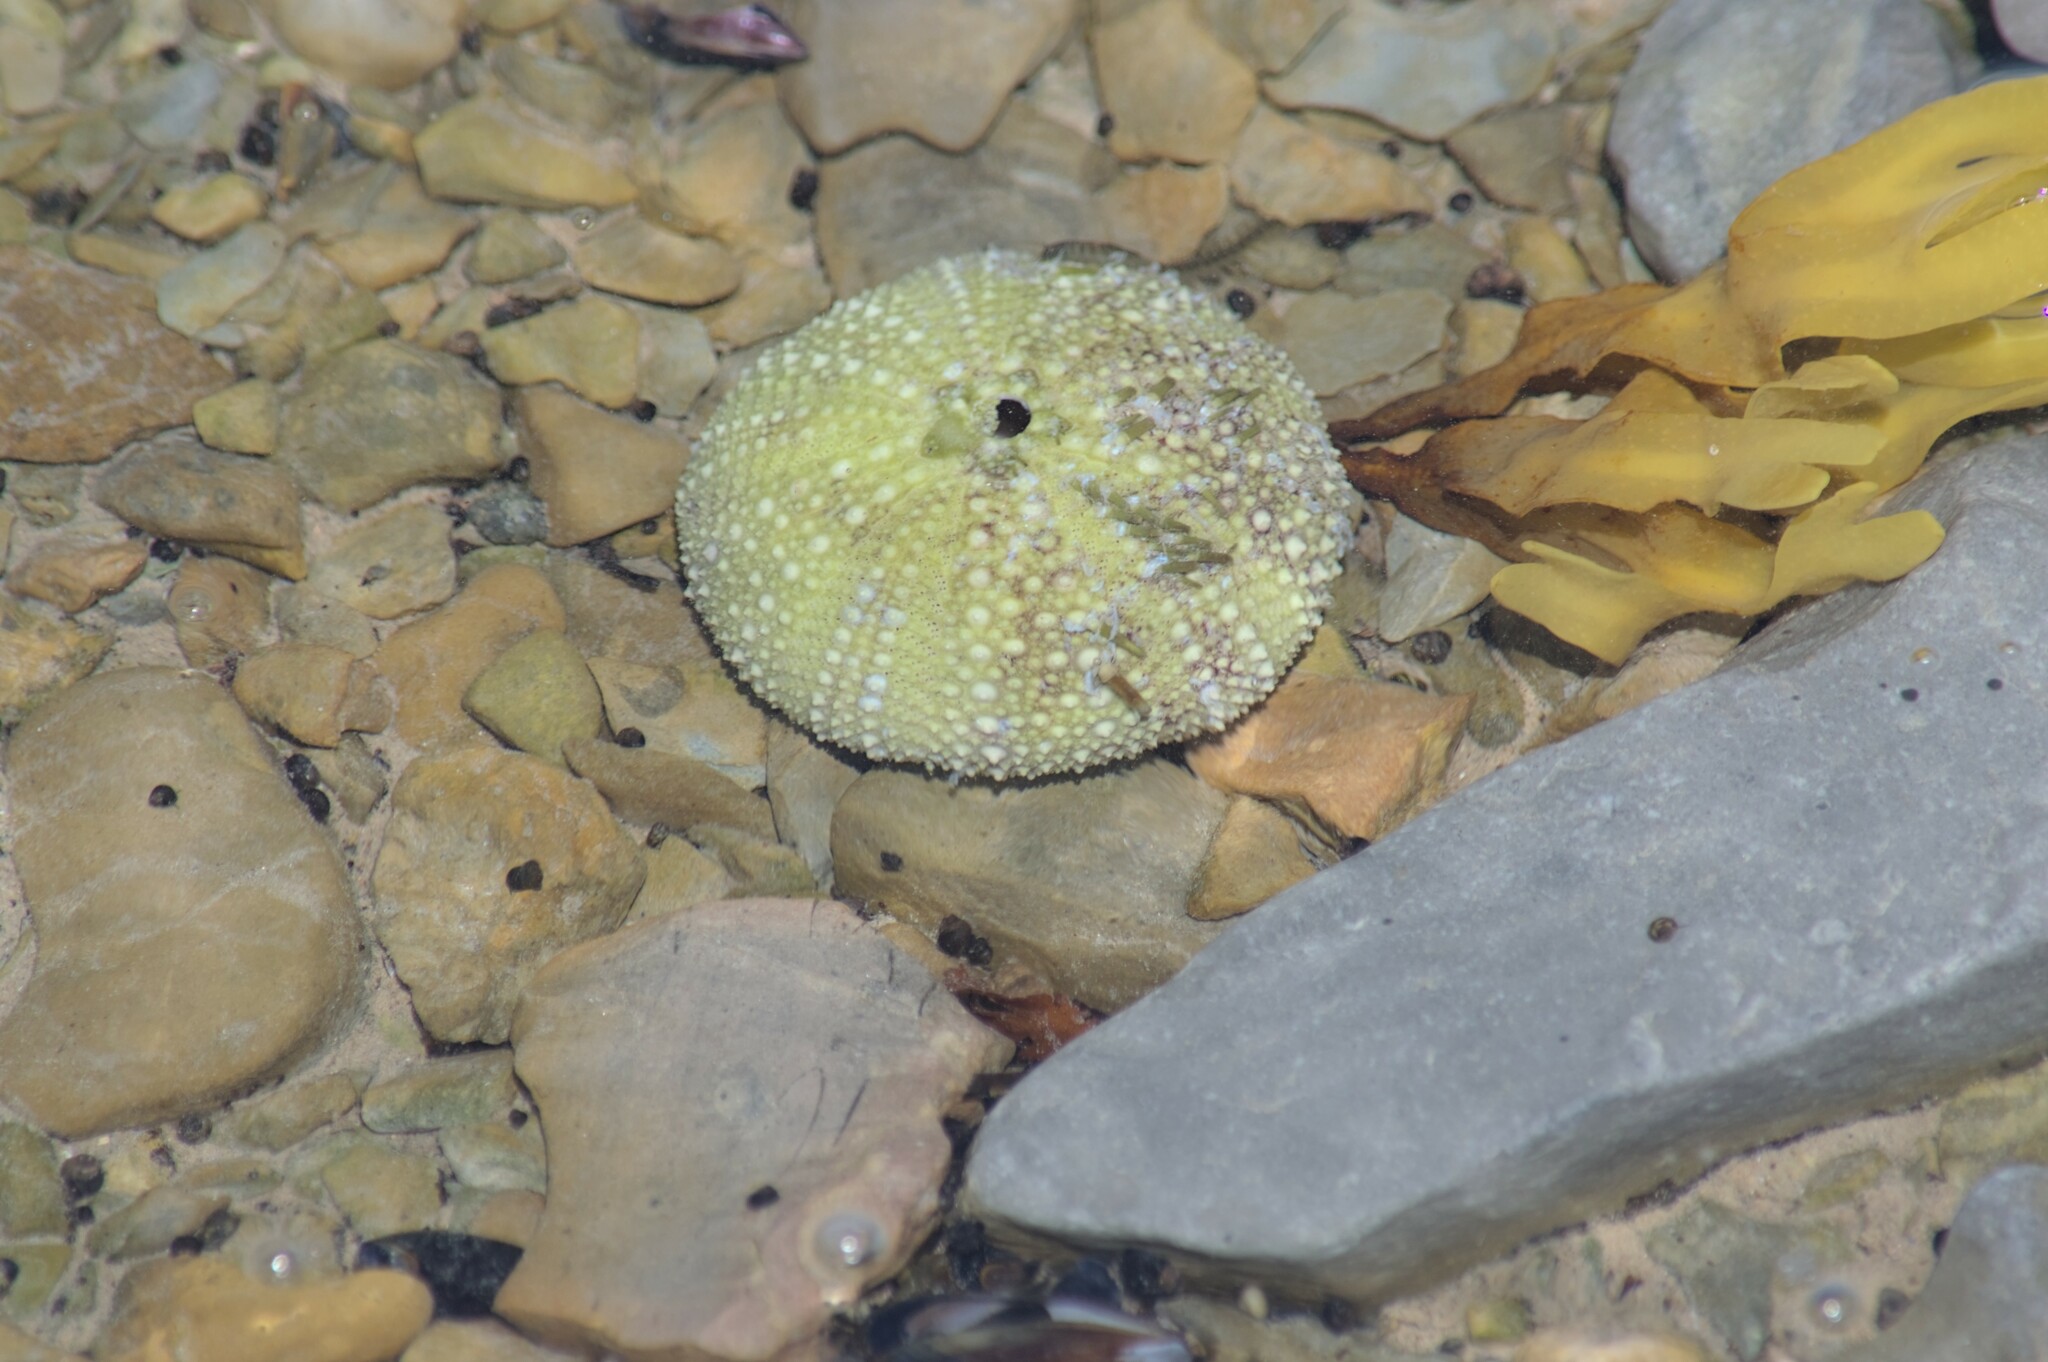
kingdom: Animalia
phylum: Echinodermata
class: Echinoidea
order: Camarodonta
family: Strongylocentrotidae
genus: Strongylocentrotus
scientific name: Strongylocentrotus droebachiensis
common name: Northern sea urchin
